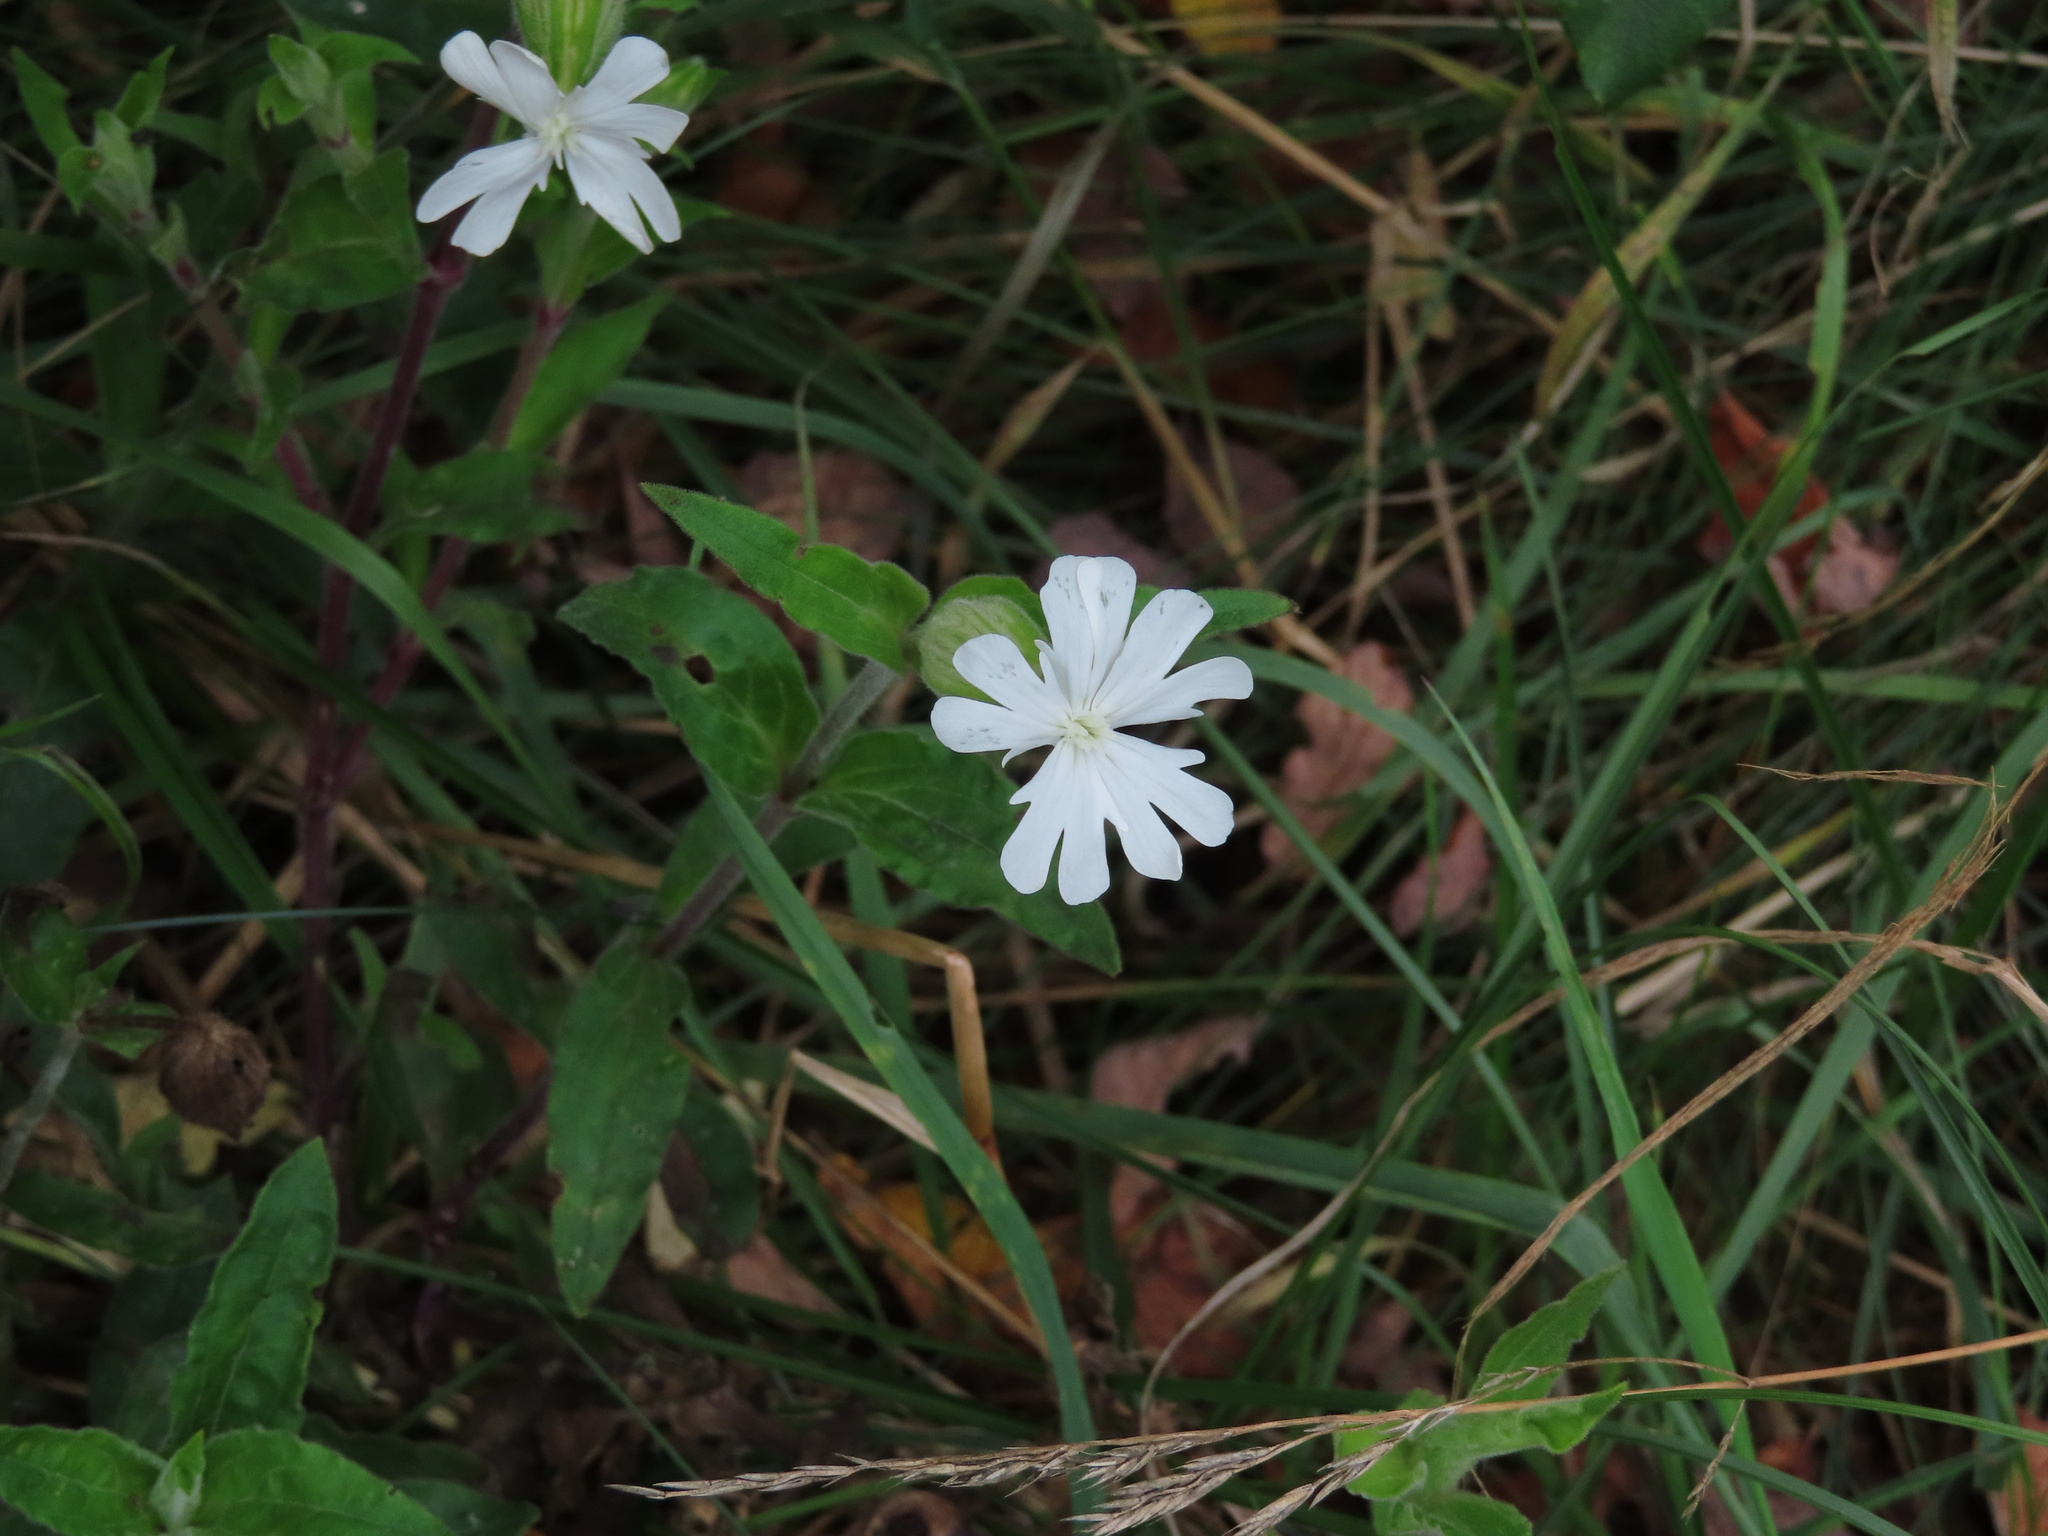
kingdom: Plantae
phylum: Tracheophyta
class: Magnoliopsida
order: Caryophyllales
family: Caryophyllaceae
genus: Silene
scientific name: Silene latifolia
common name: White campion
